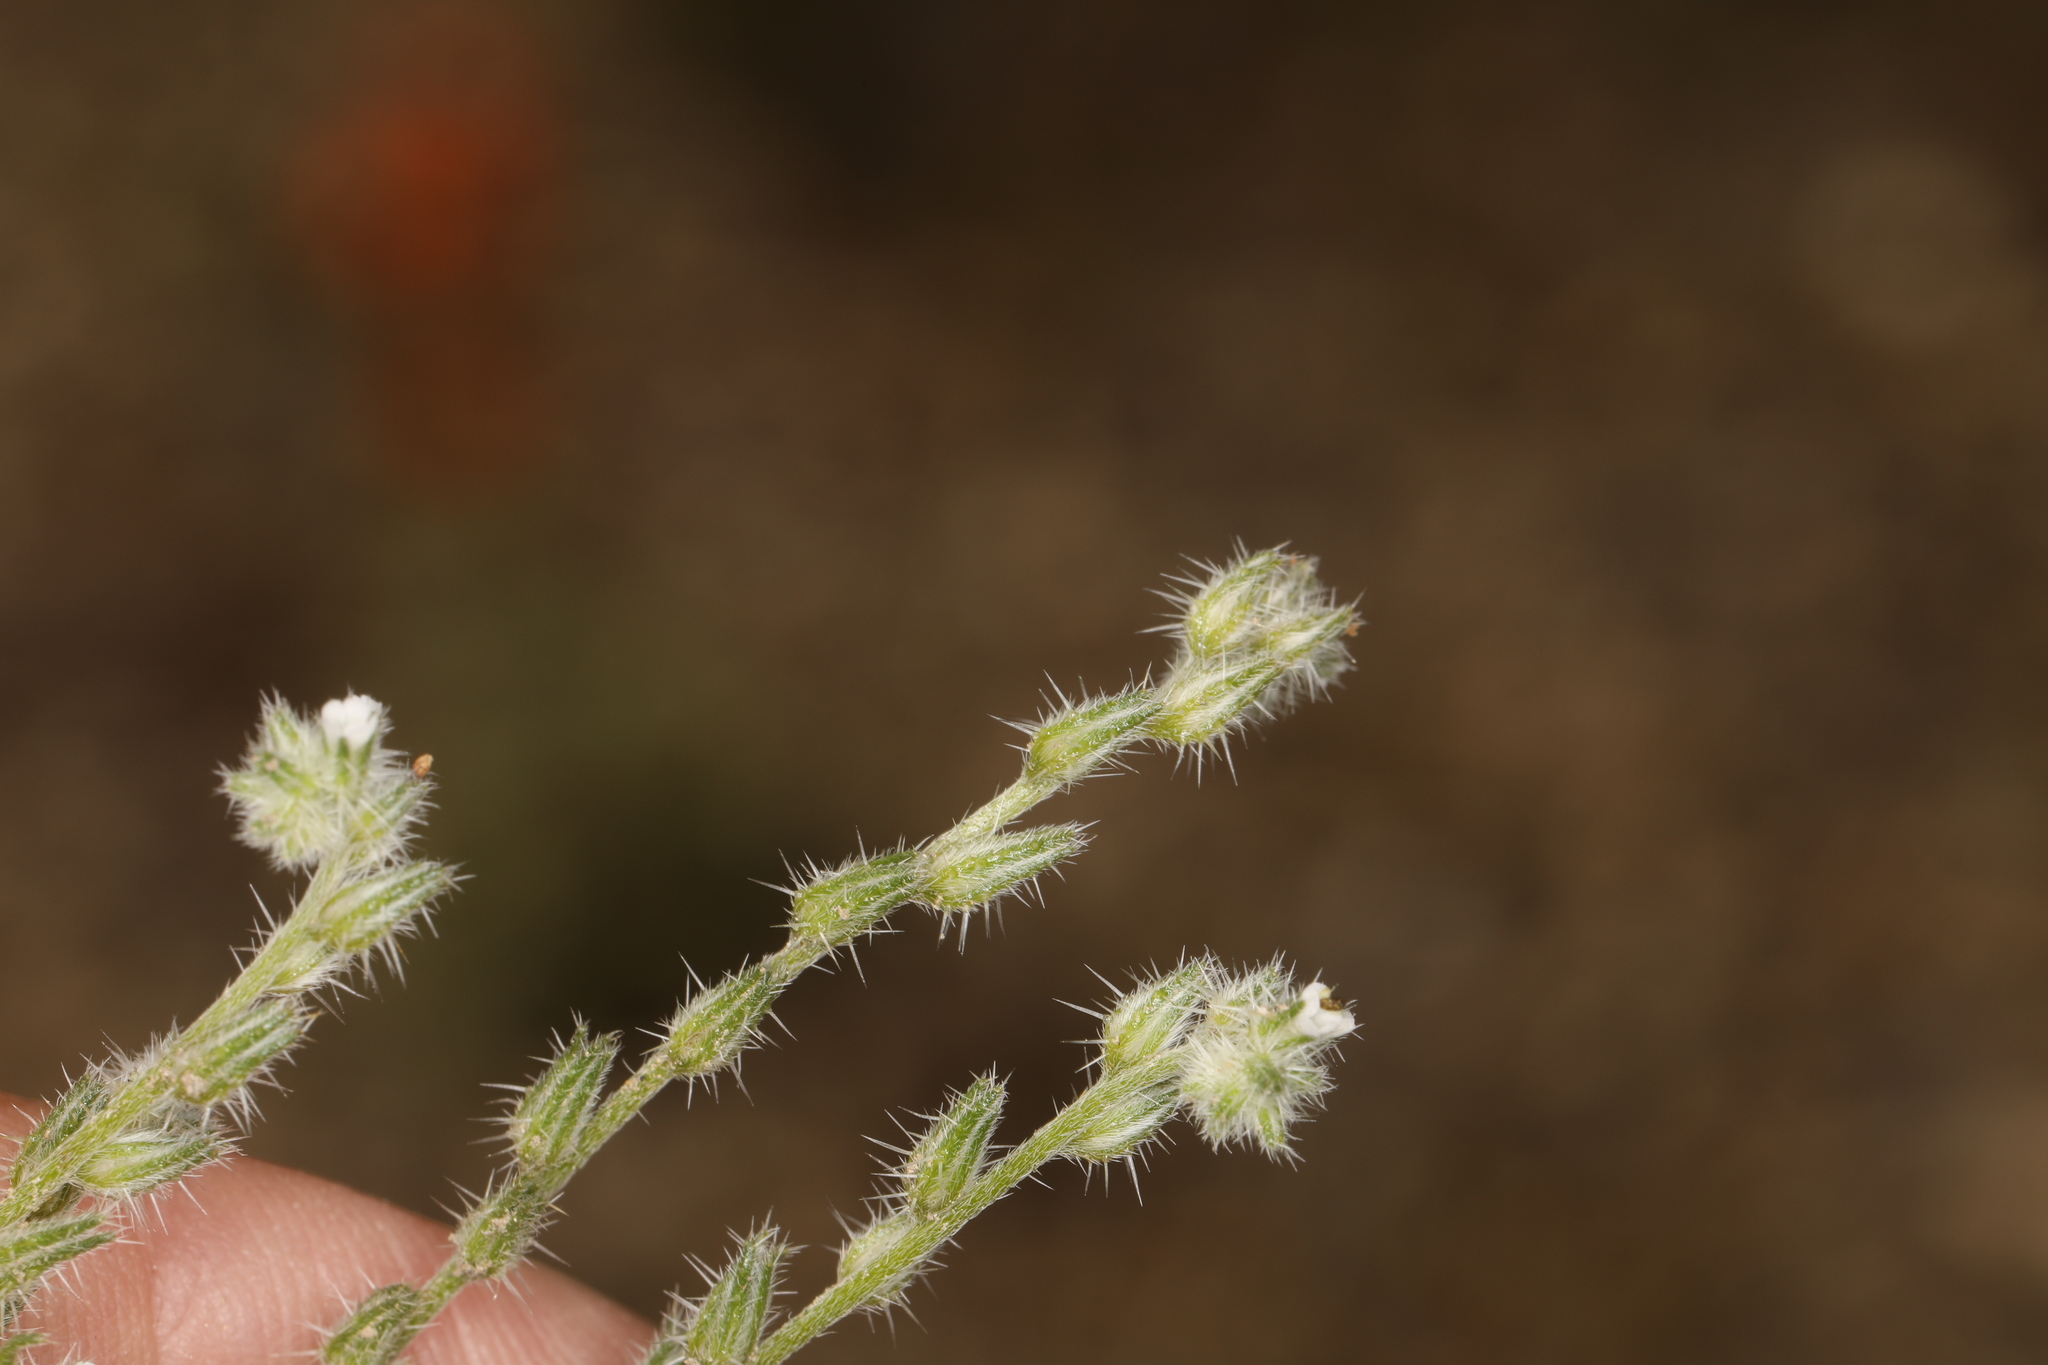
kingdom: Plantae
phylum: Tracheophyta
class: Magnoliopsida
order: Boraginales
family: Boraginaceae
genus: Cryptantha
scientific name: Cryptantha scoparia
